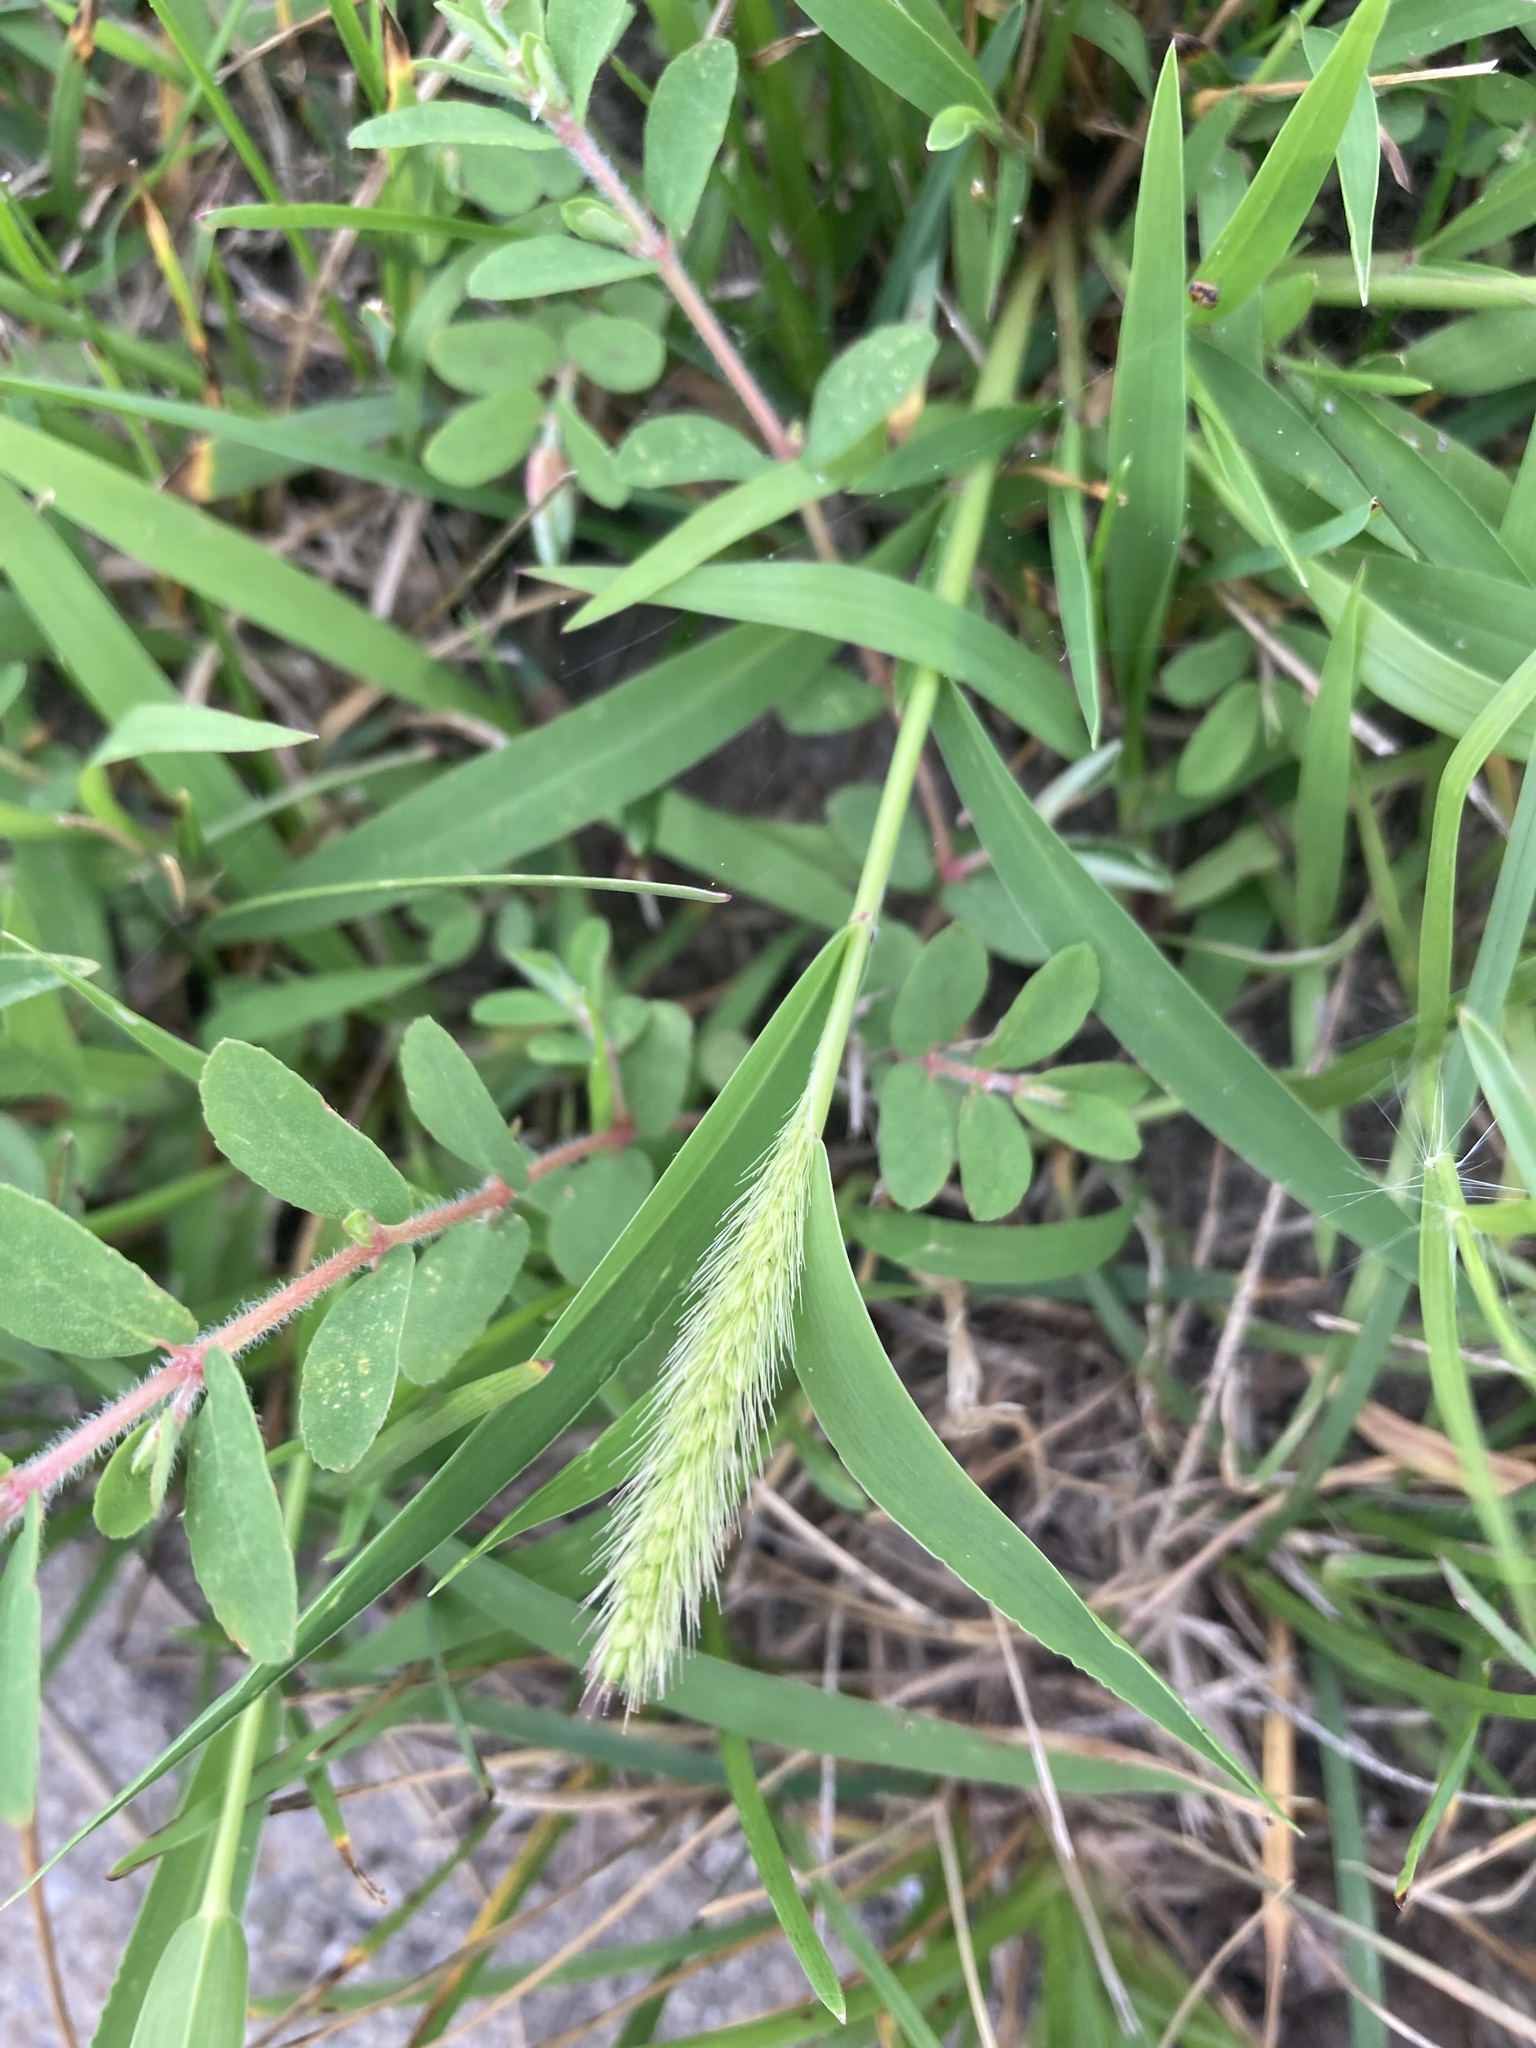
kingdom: Plantae
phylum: Tracheophyta
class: Magnoliopsida
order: Malpighiales
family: Euphorbiaceae
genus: Euphorbia
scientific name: Euphorbia maculata
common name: Spotted spurge
